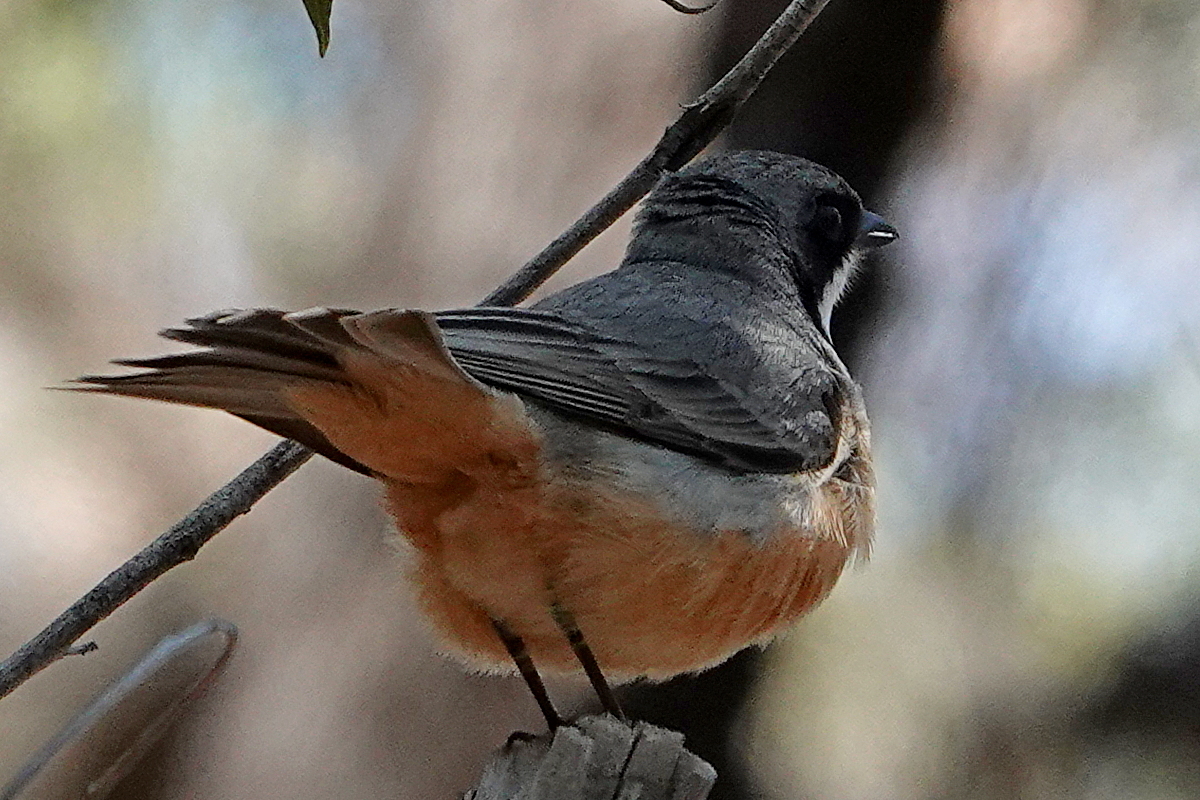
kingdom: Animalia
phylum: Chordata
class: Aves
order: Passeriformes
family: Pachycephalidae
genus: Pachycephala
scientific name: Pachycephala rufiventris
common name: Rufous whistler
